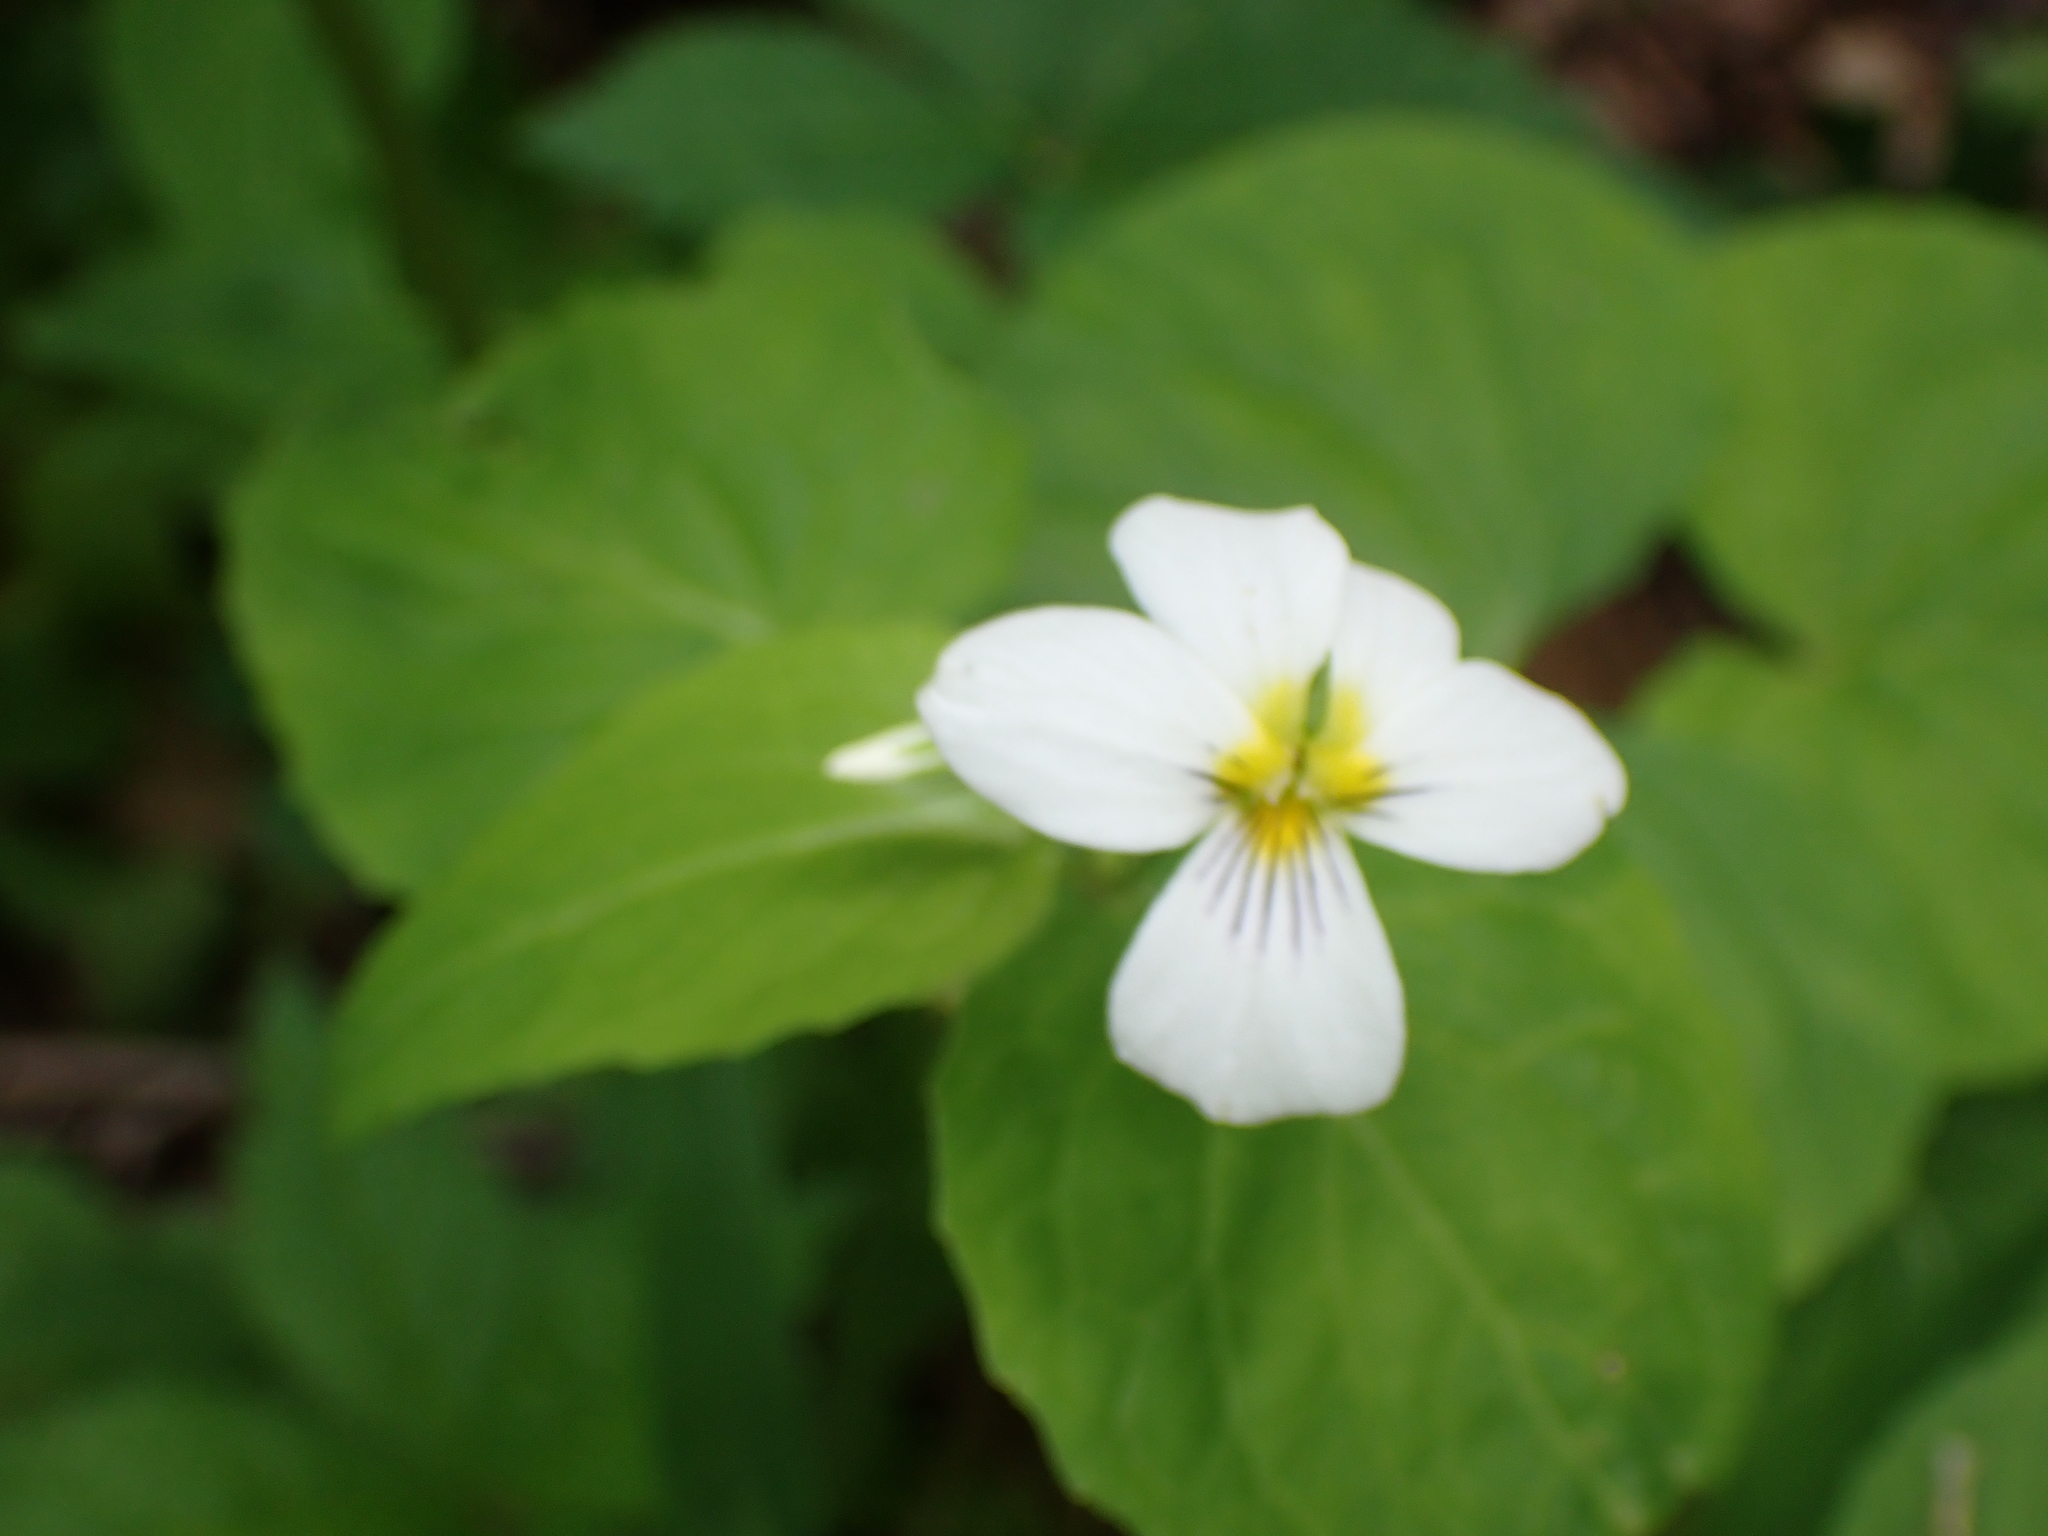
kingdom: Plantae
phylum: Tracheophyta
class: Magnoliopsida
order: Malpighiales
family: Violaceae
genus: Viola
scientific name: Viola canadensis
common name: Canada violet
